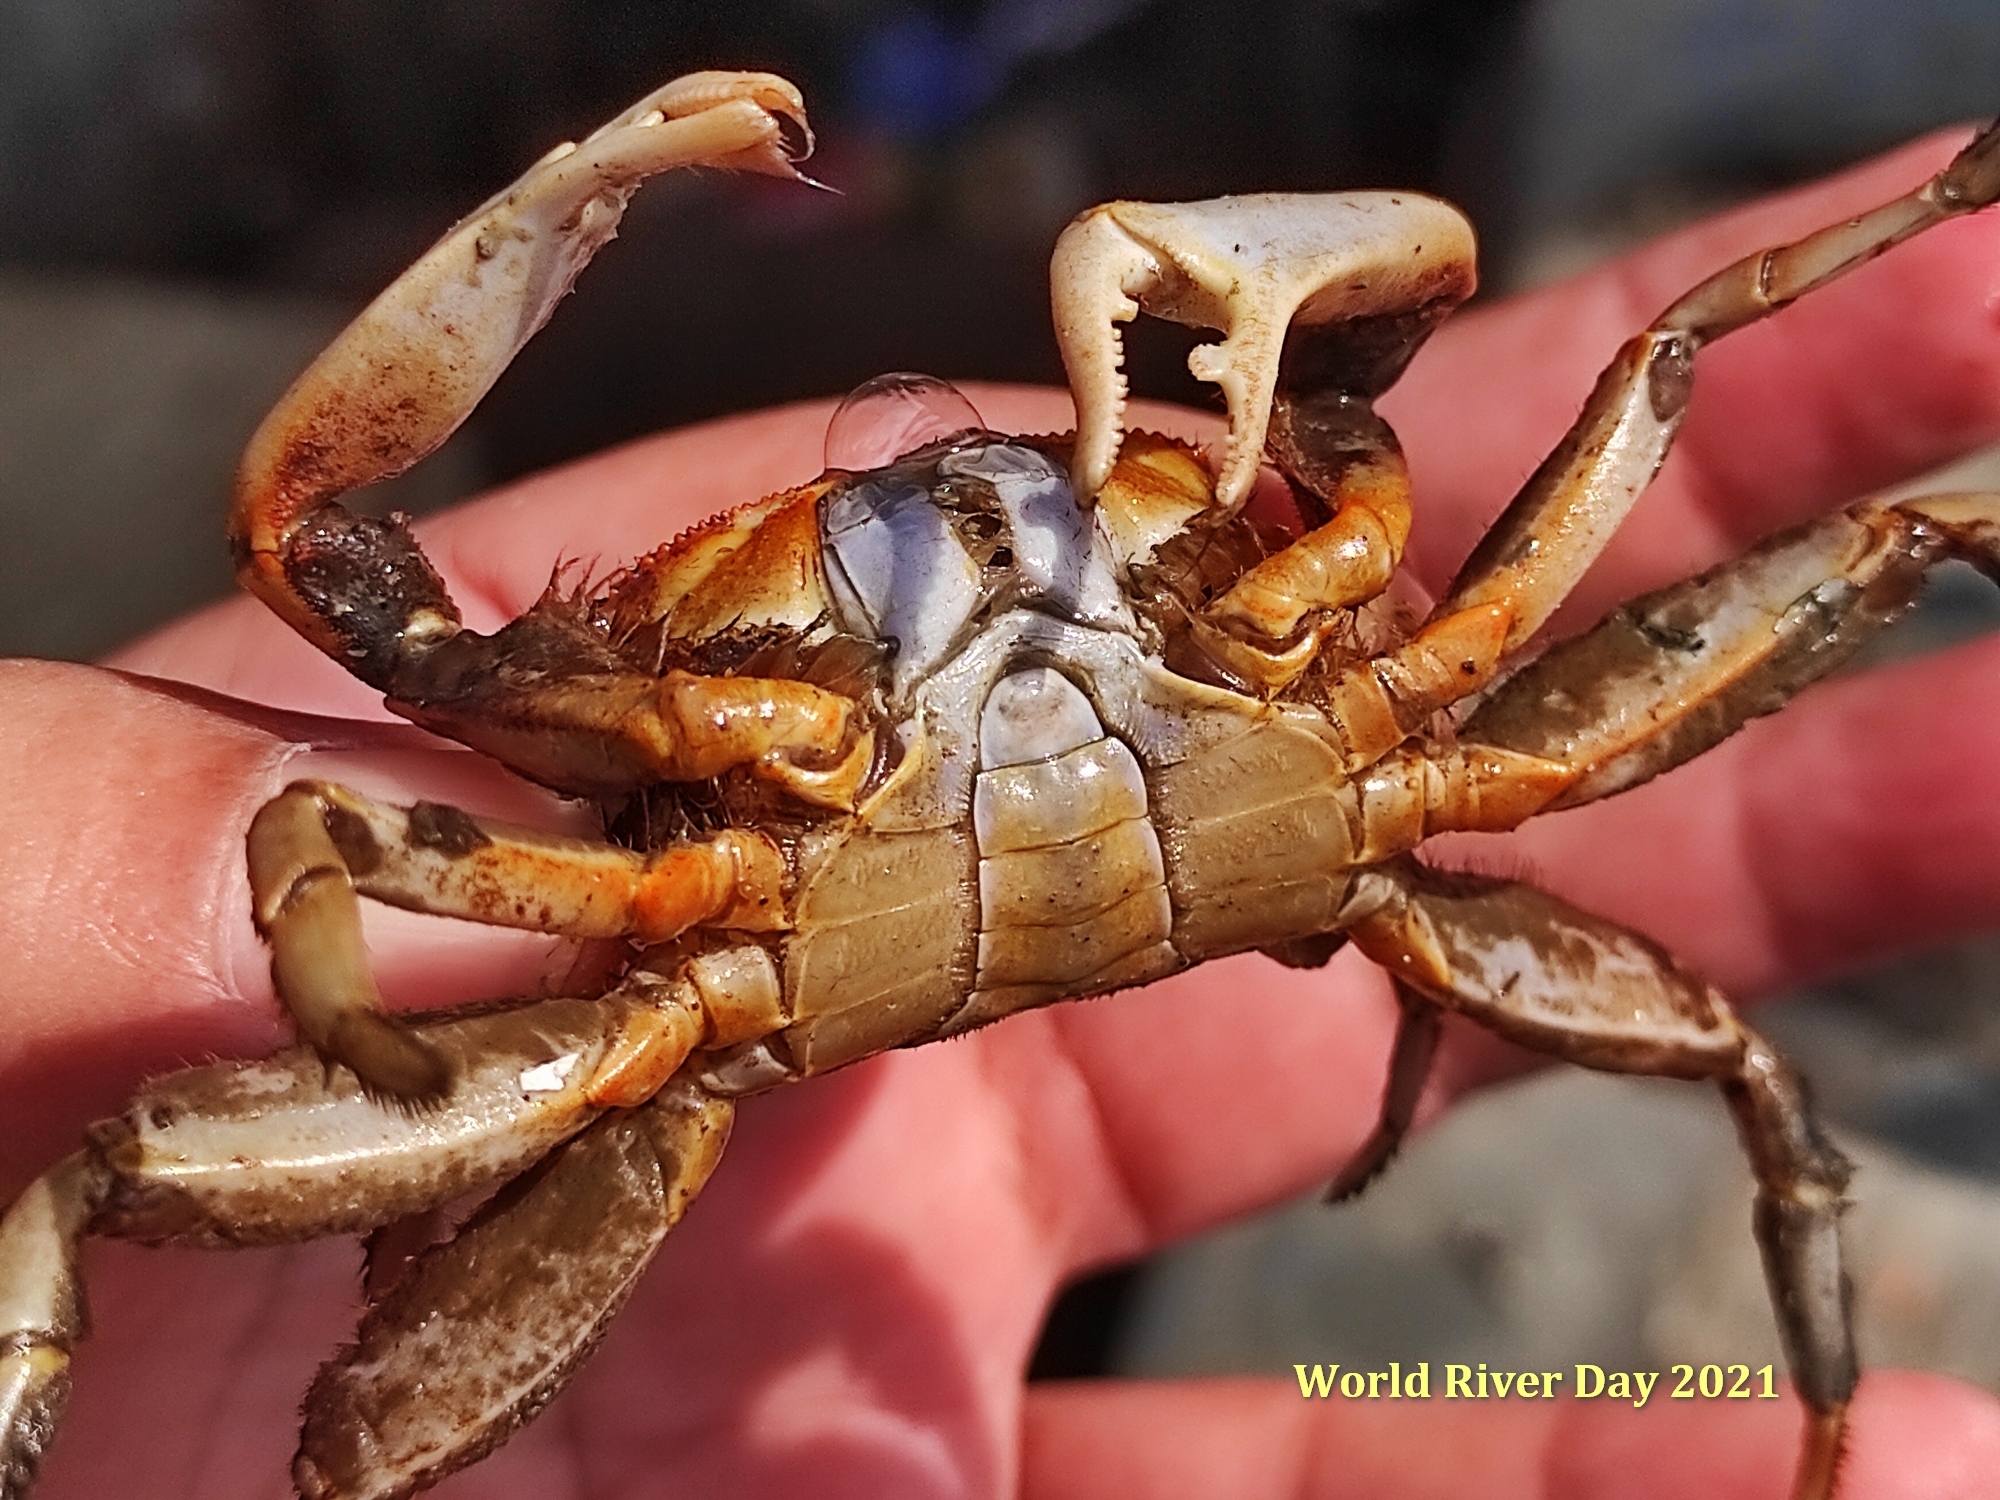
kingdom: Animalia
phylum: Arthropoda
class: Malacostraca
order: Decapoda
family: Macrophthalmidae
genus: Macrophthalmus
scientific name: Macrophthalmus tomentosus
